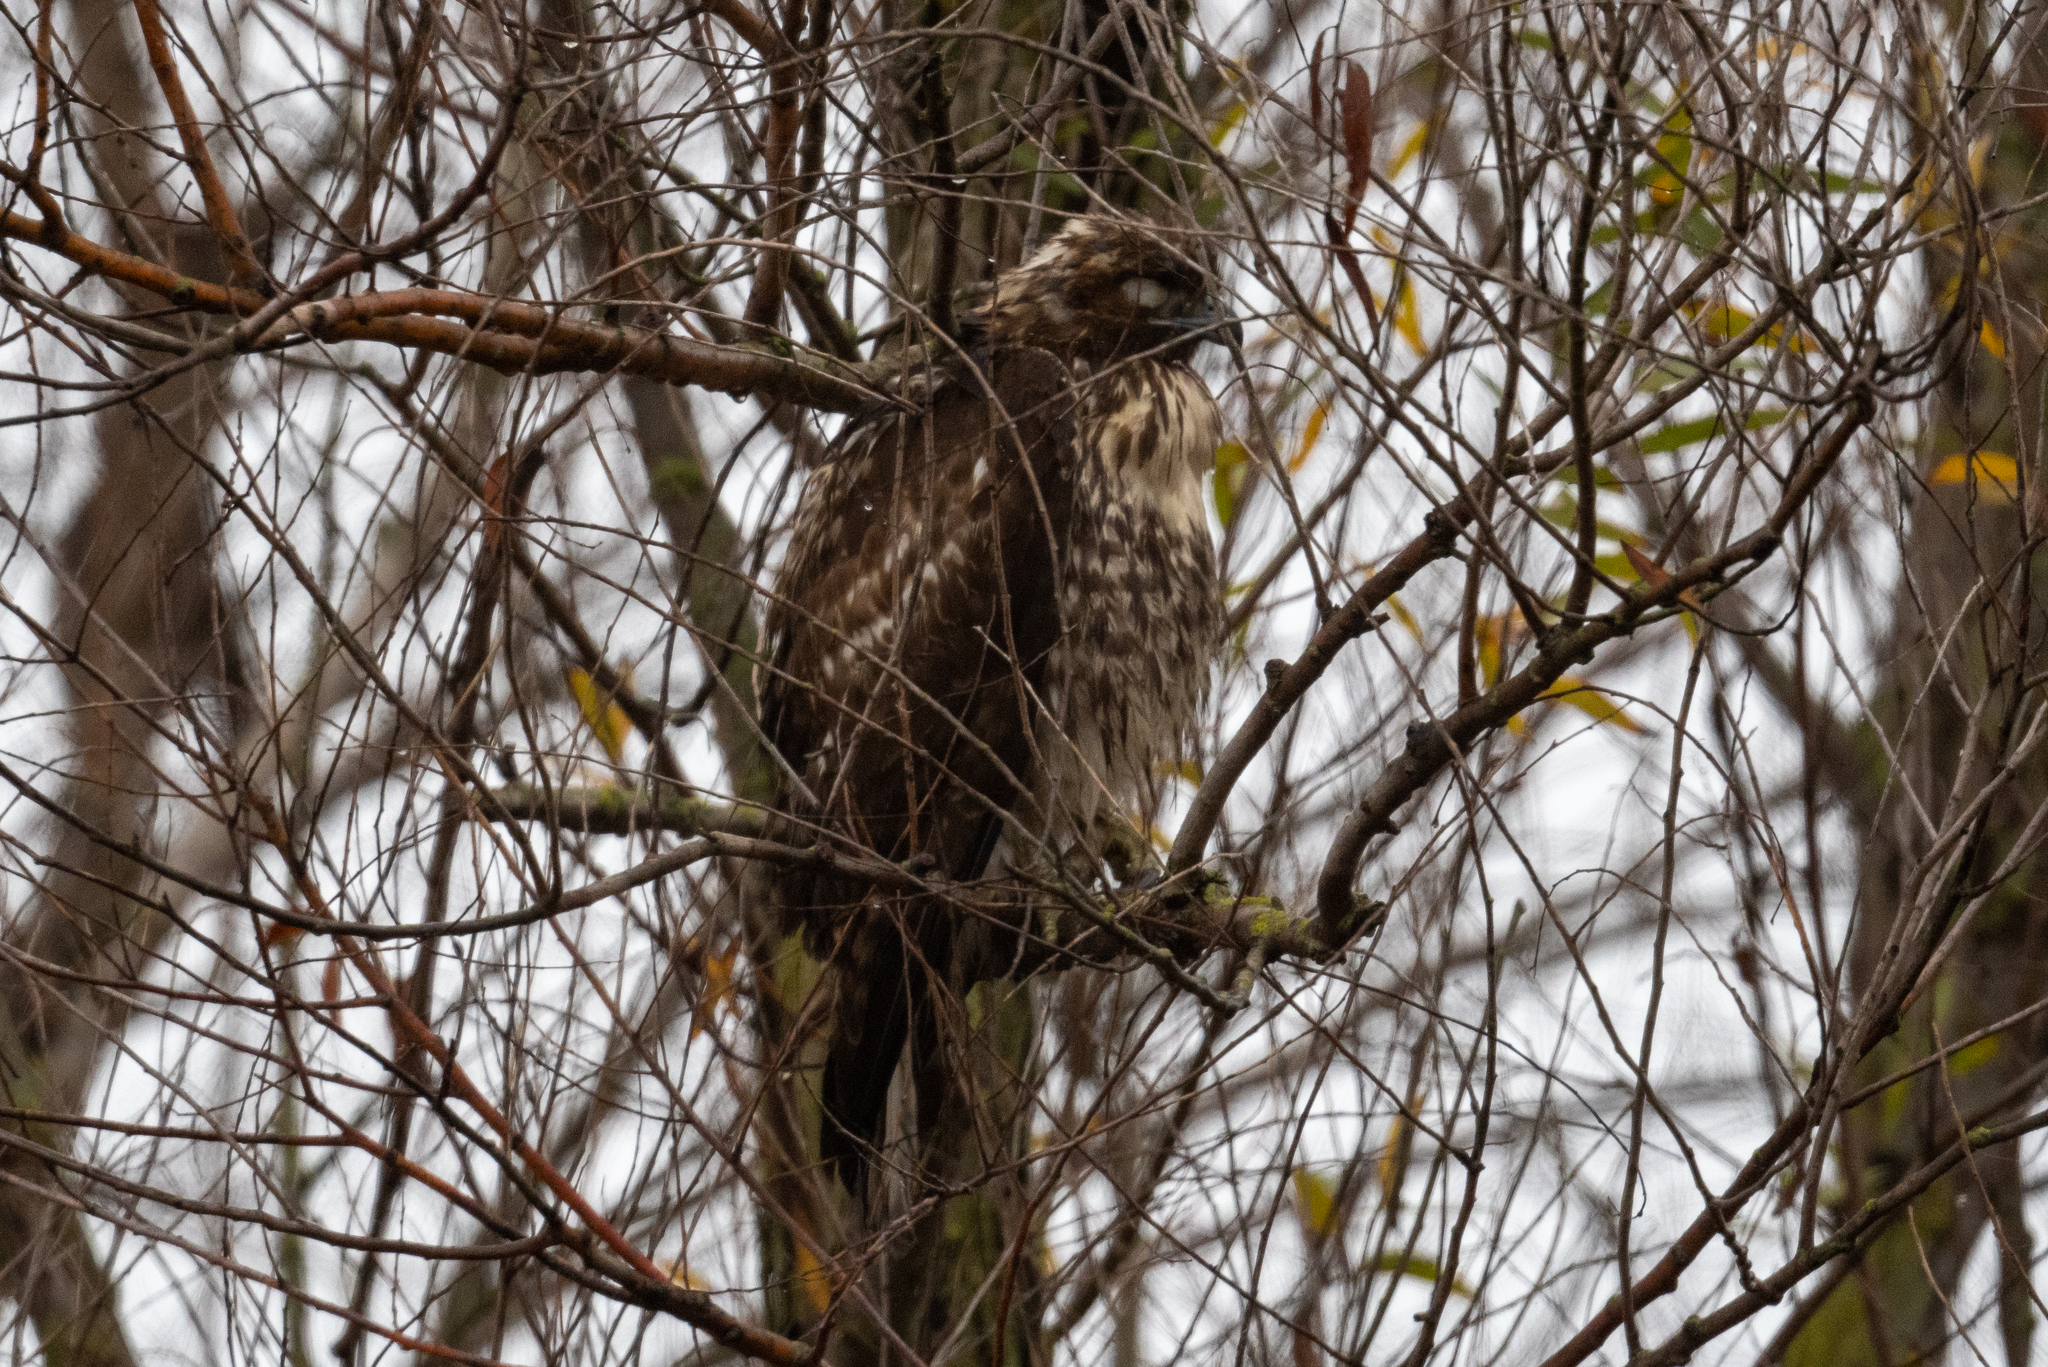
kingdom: Animalia
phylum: Chordata
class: Aves
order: Accipitriformes
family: Accipitridae
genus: Buteo
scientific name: Buteo jamaicensis
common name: Red-tailed hawk
